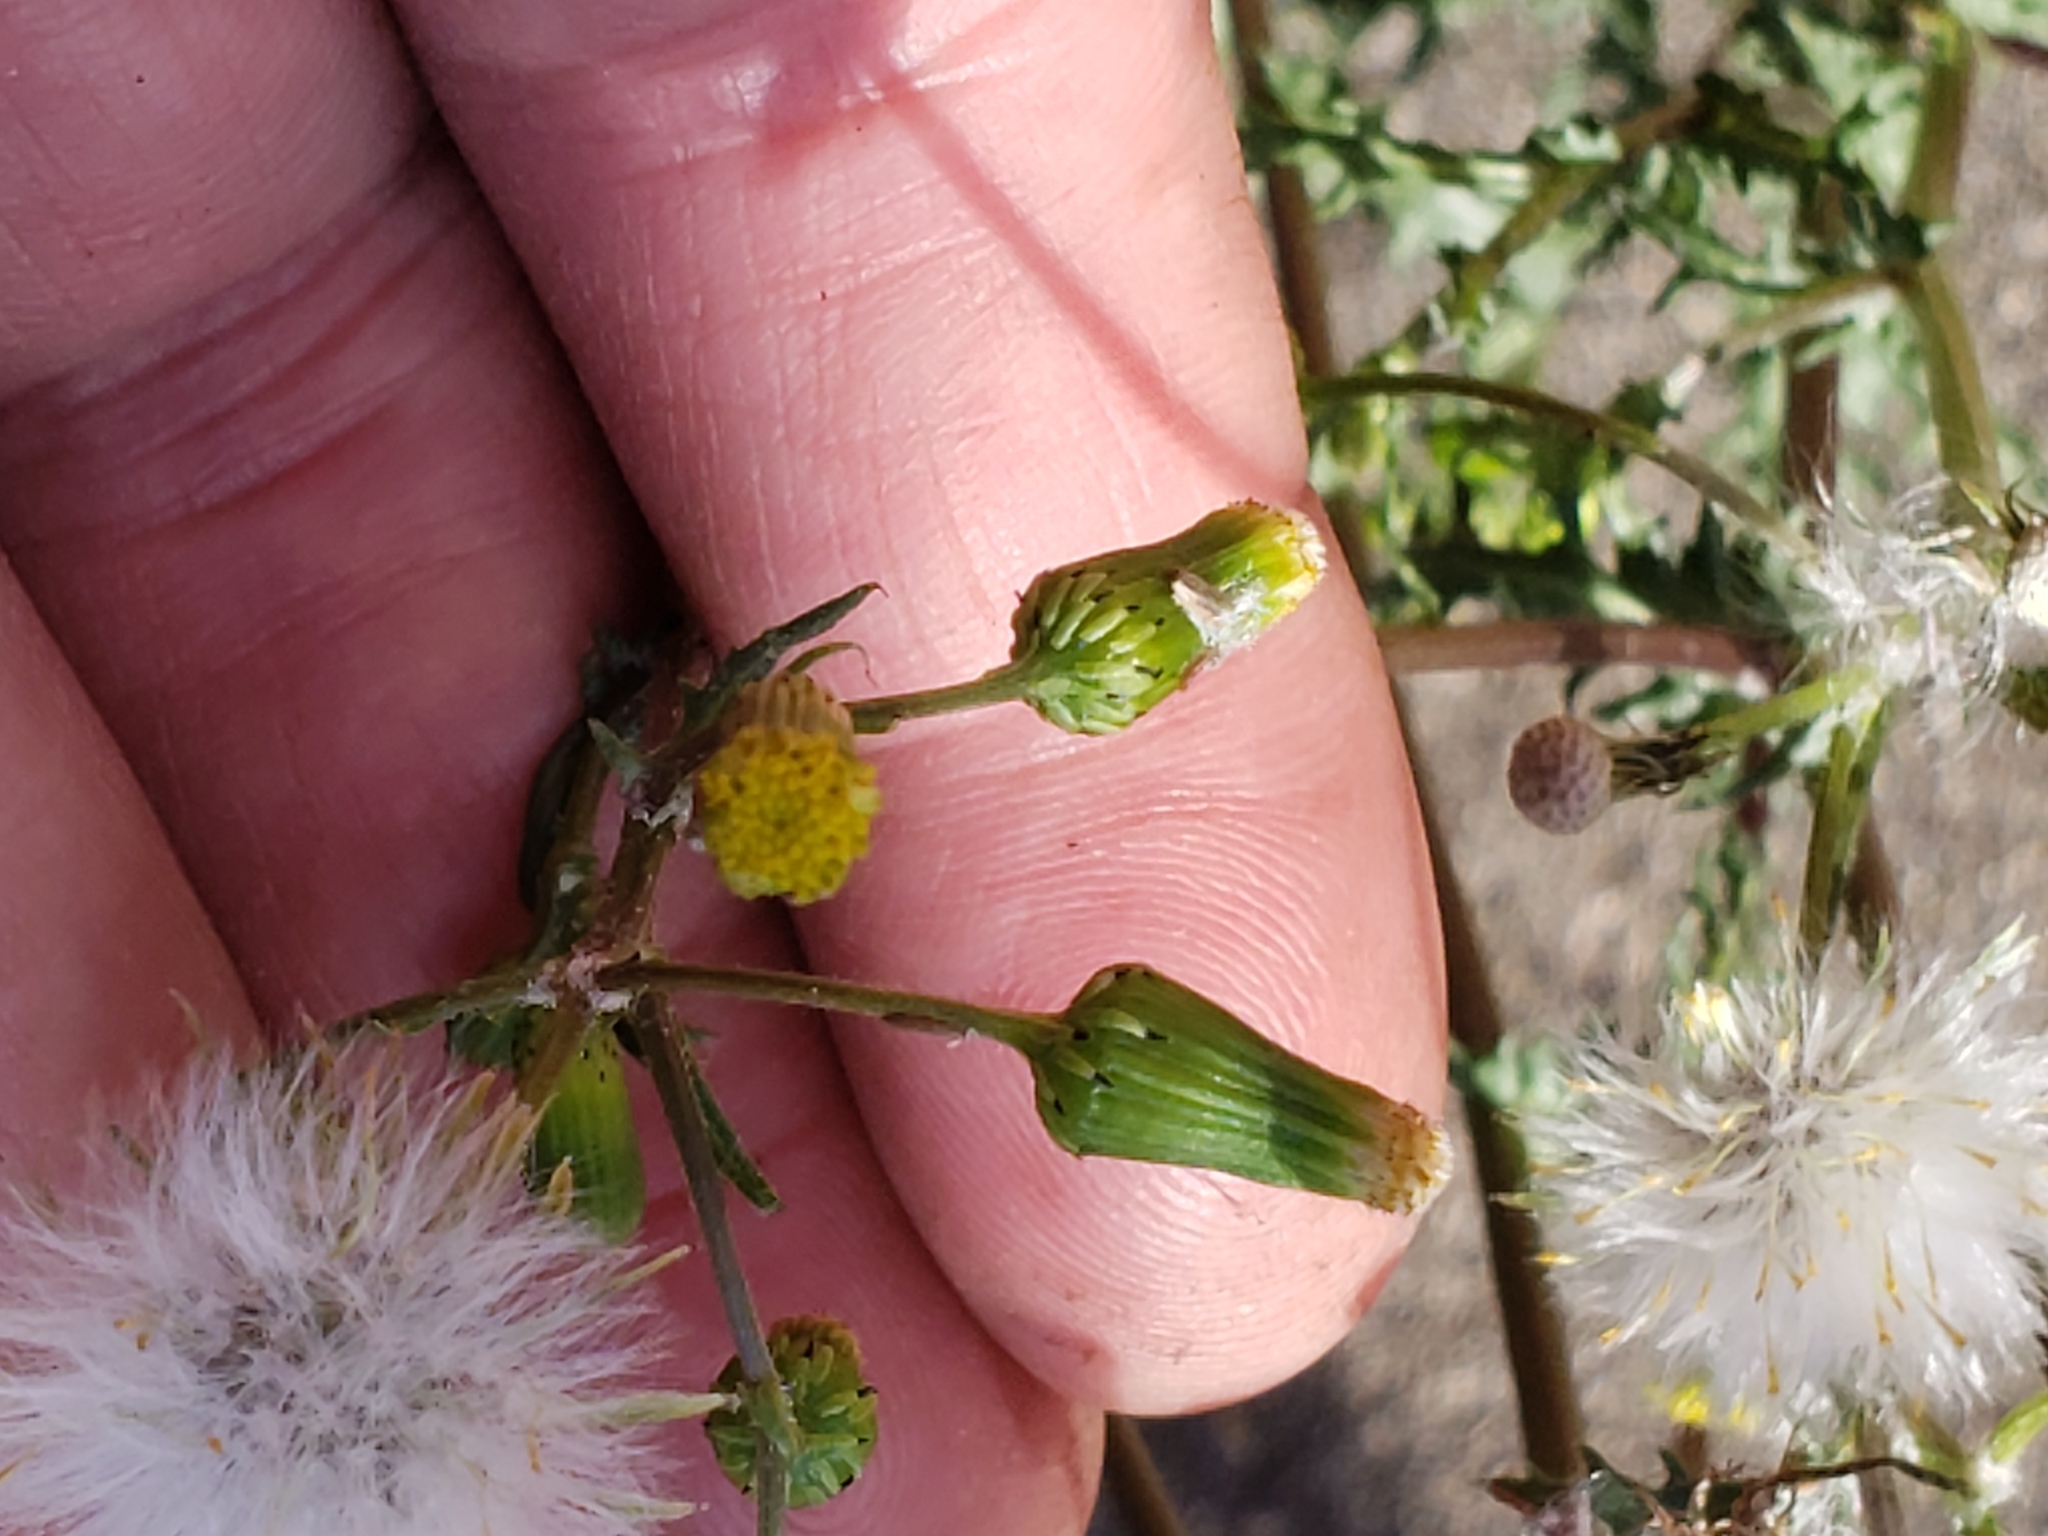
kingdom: Plantae
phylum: Tracheophyta
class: Magnoliopsida
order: Asterales
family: Asteraceae
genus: Senecio
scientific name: Senecio vulgaris
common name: Old-man-in-the-spring
